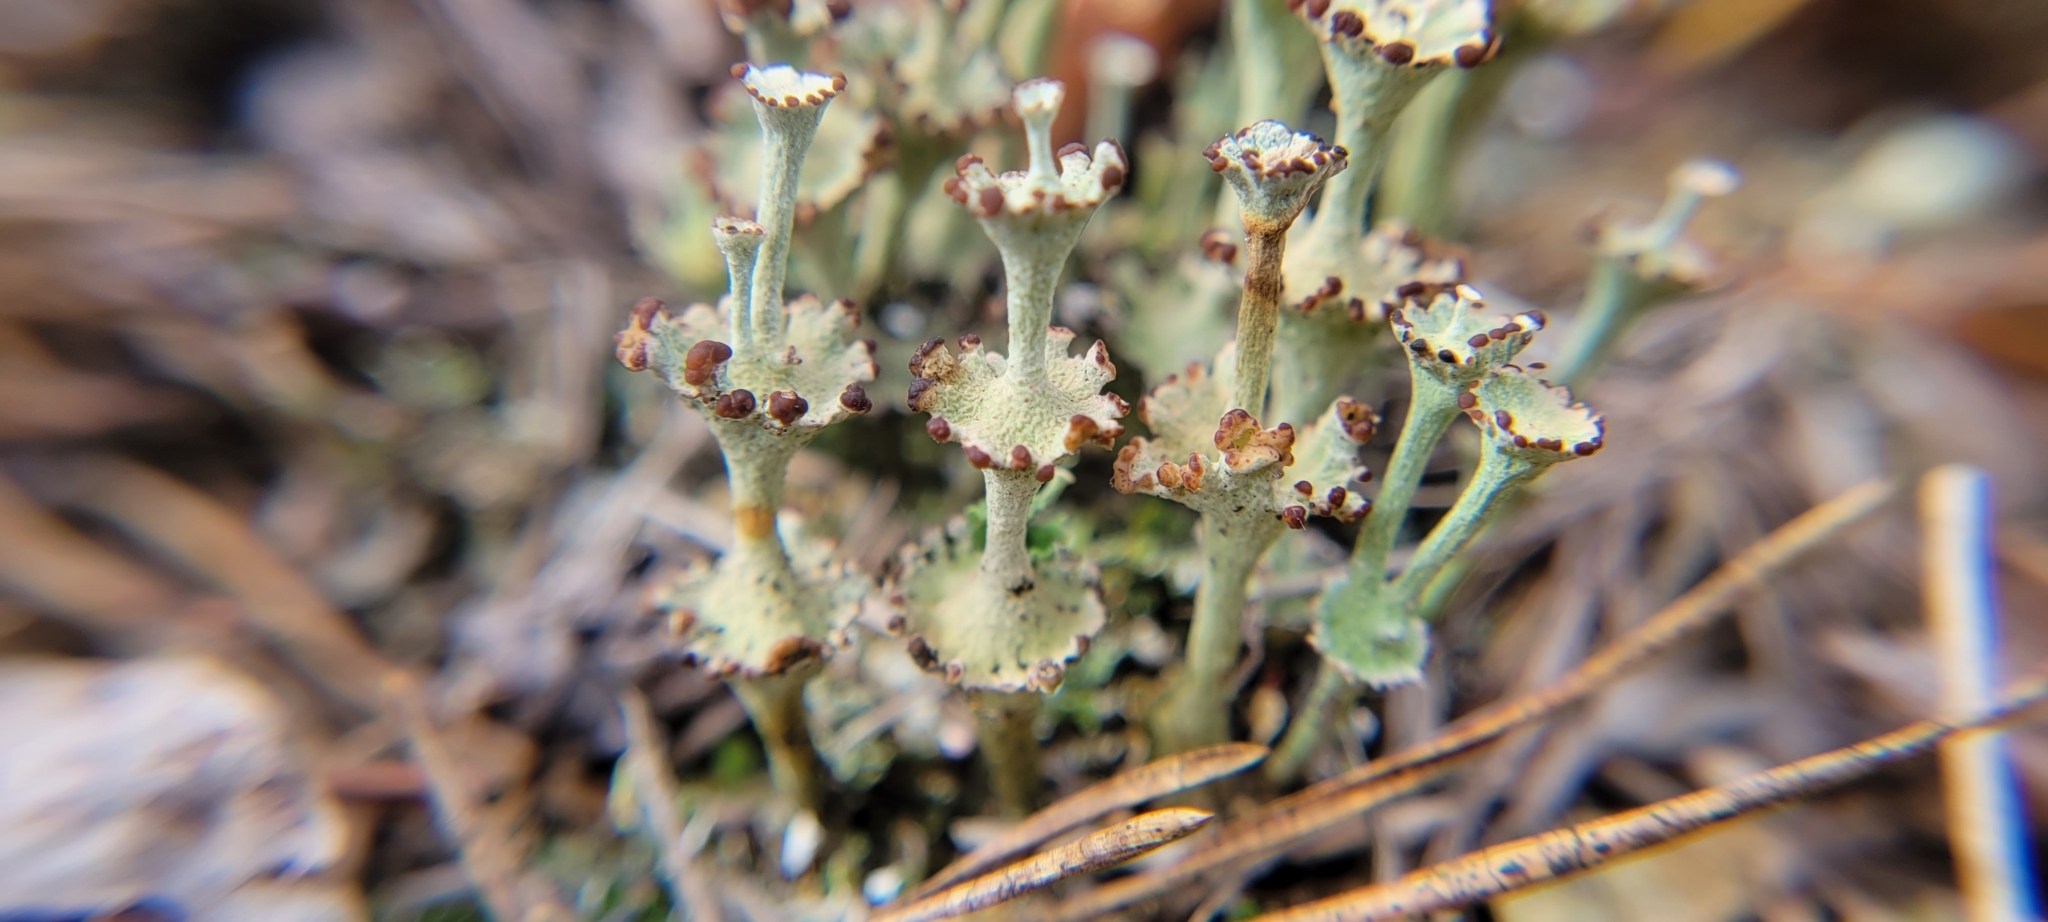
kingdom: Fungi
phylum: Ascomycota
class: Lecanoromycetes
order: Lecanorales
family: Cladoniaceae
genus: Cladonia
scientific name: Cladonia cervicornis
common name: Browned pixie-cup lichen
